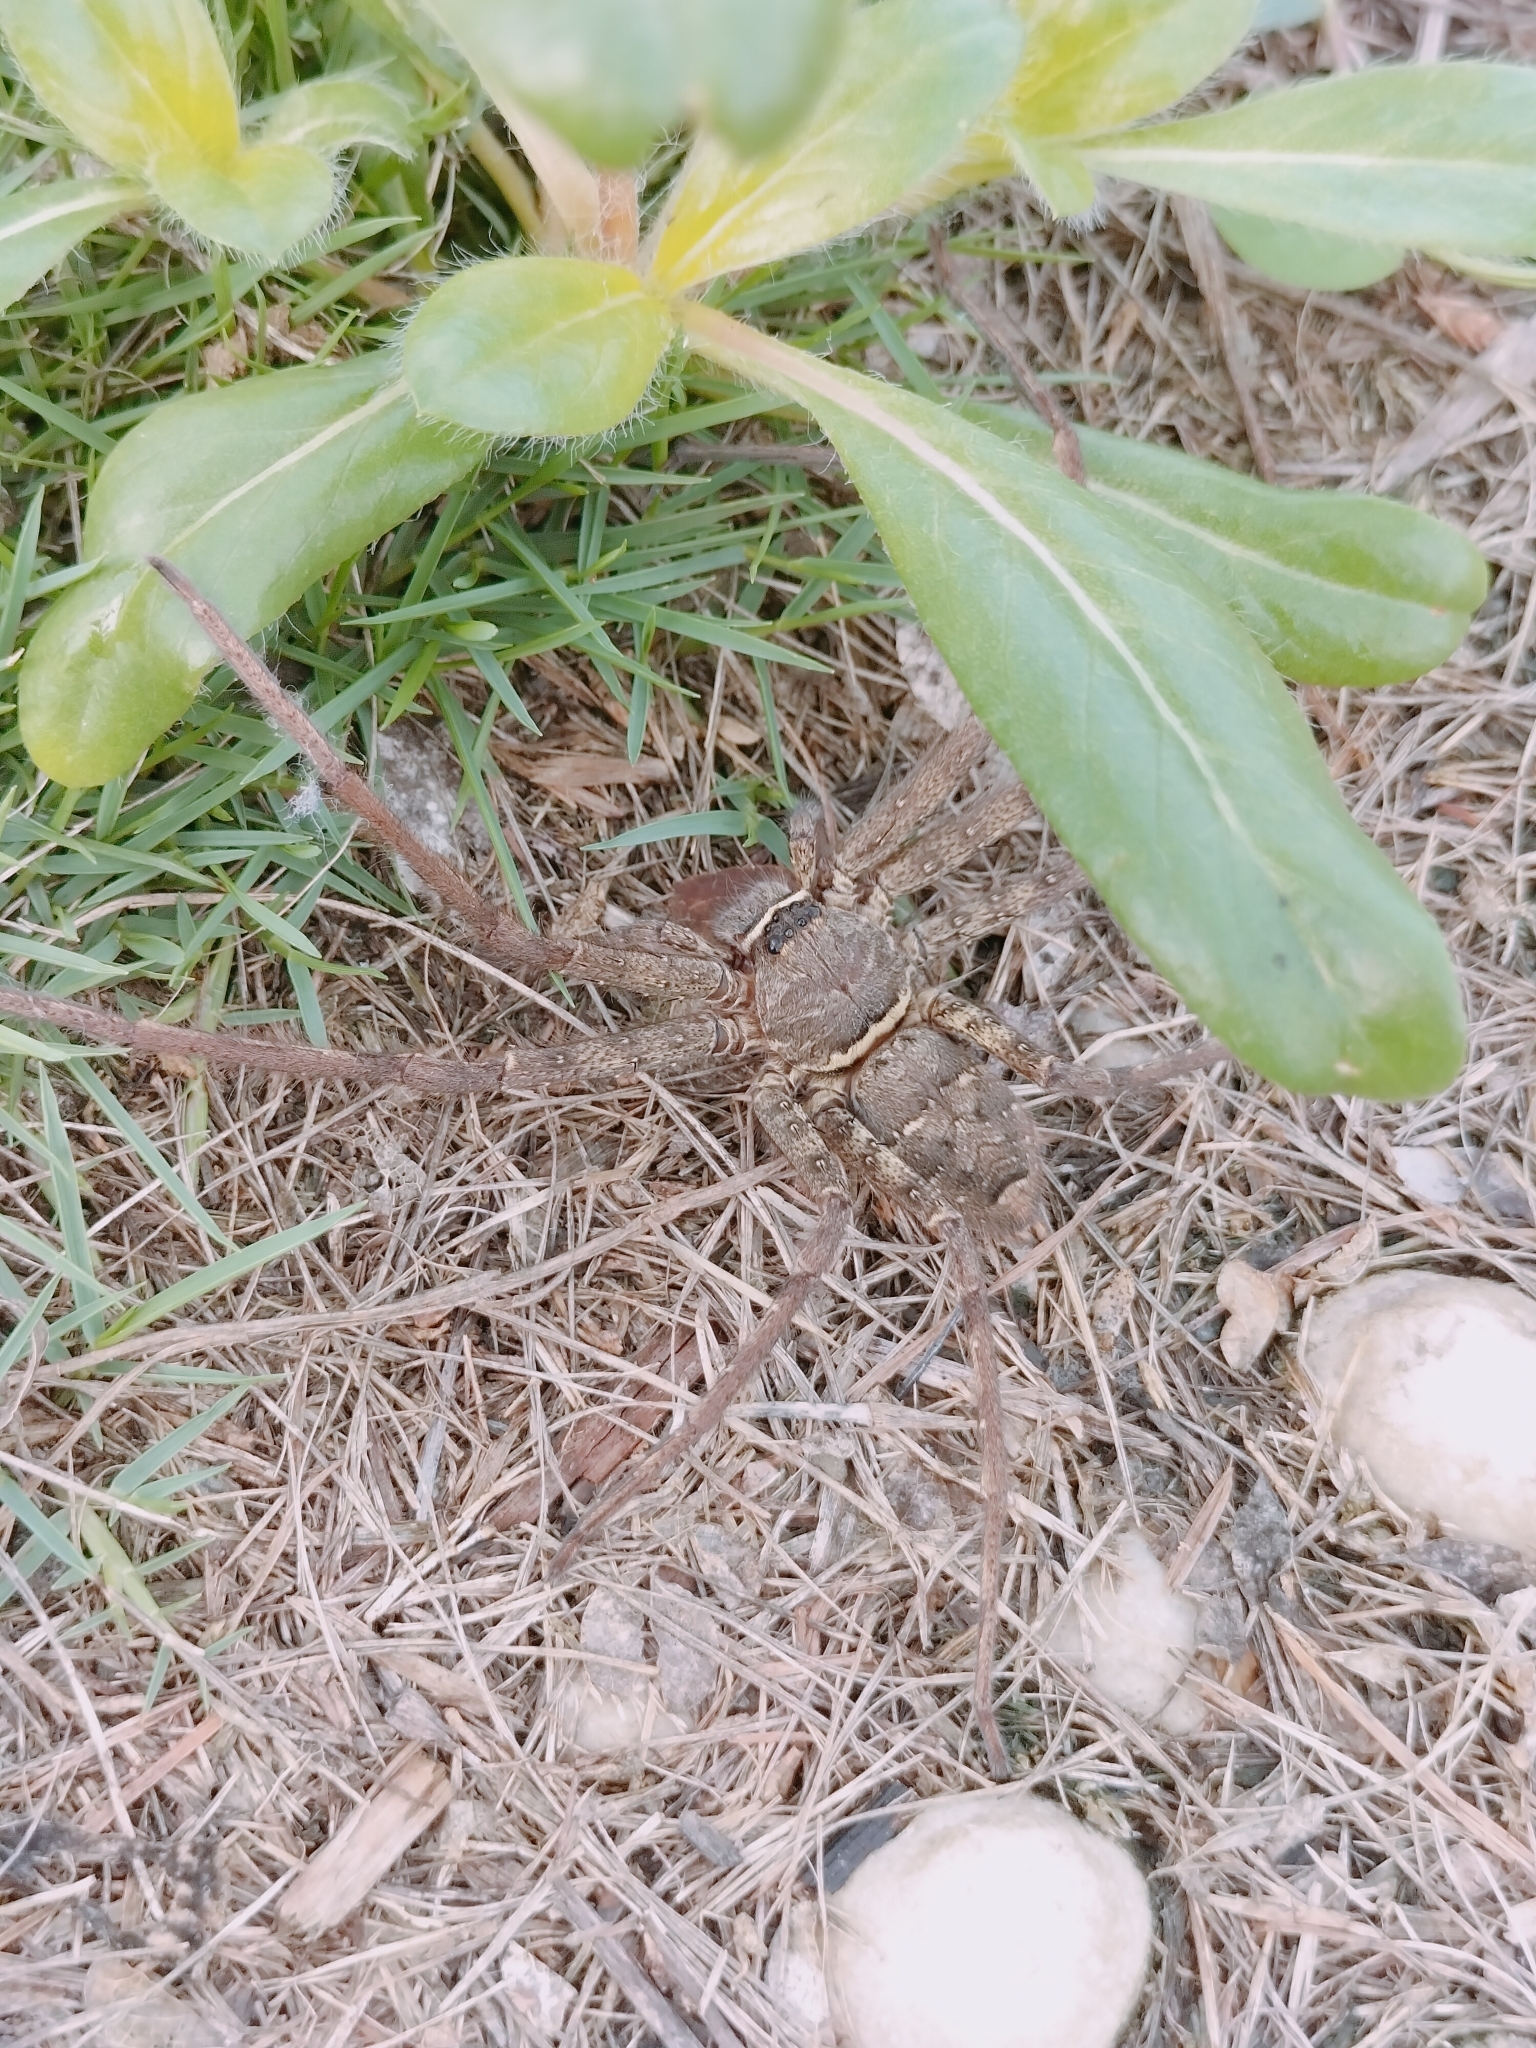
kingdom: Animalia
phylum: Arthropoda
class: Arachnida
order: Araneae
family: Sparassidae
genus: Heteropoda
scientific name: Heteropoda venatoria
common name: Huntsman spider
